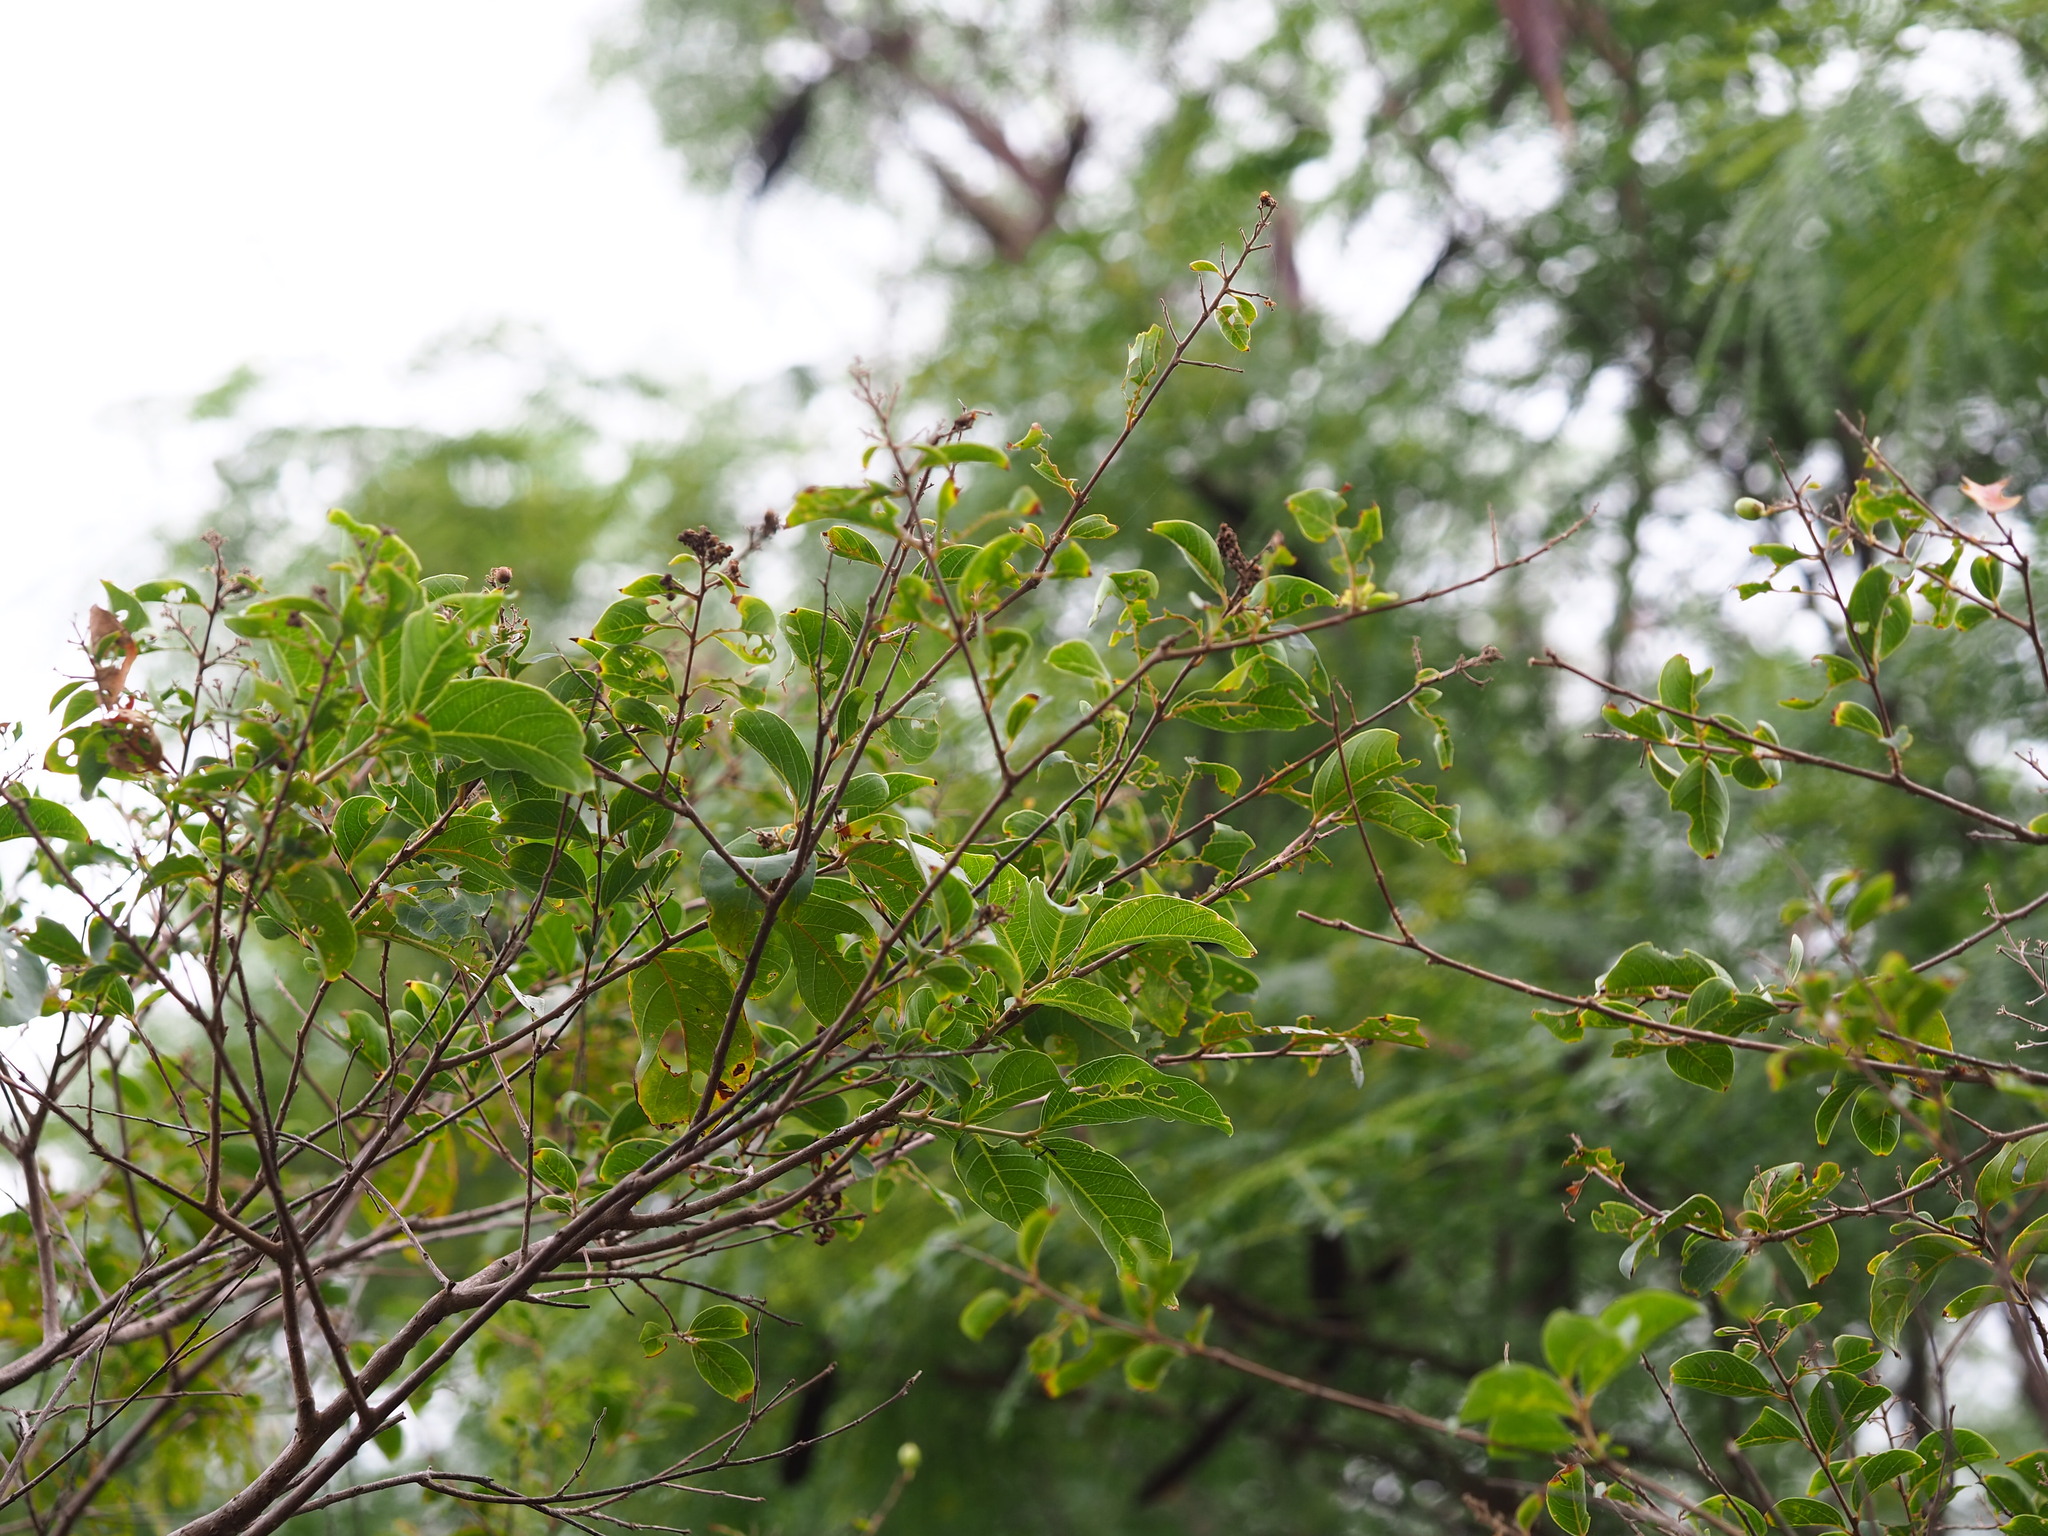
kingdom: Plantae
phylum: Tracheophyta
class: Magnoliopsida
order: Myrtales
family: Lythraceae
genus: Lagerstroemia
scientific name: Lagerstroemia subcostata
